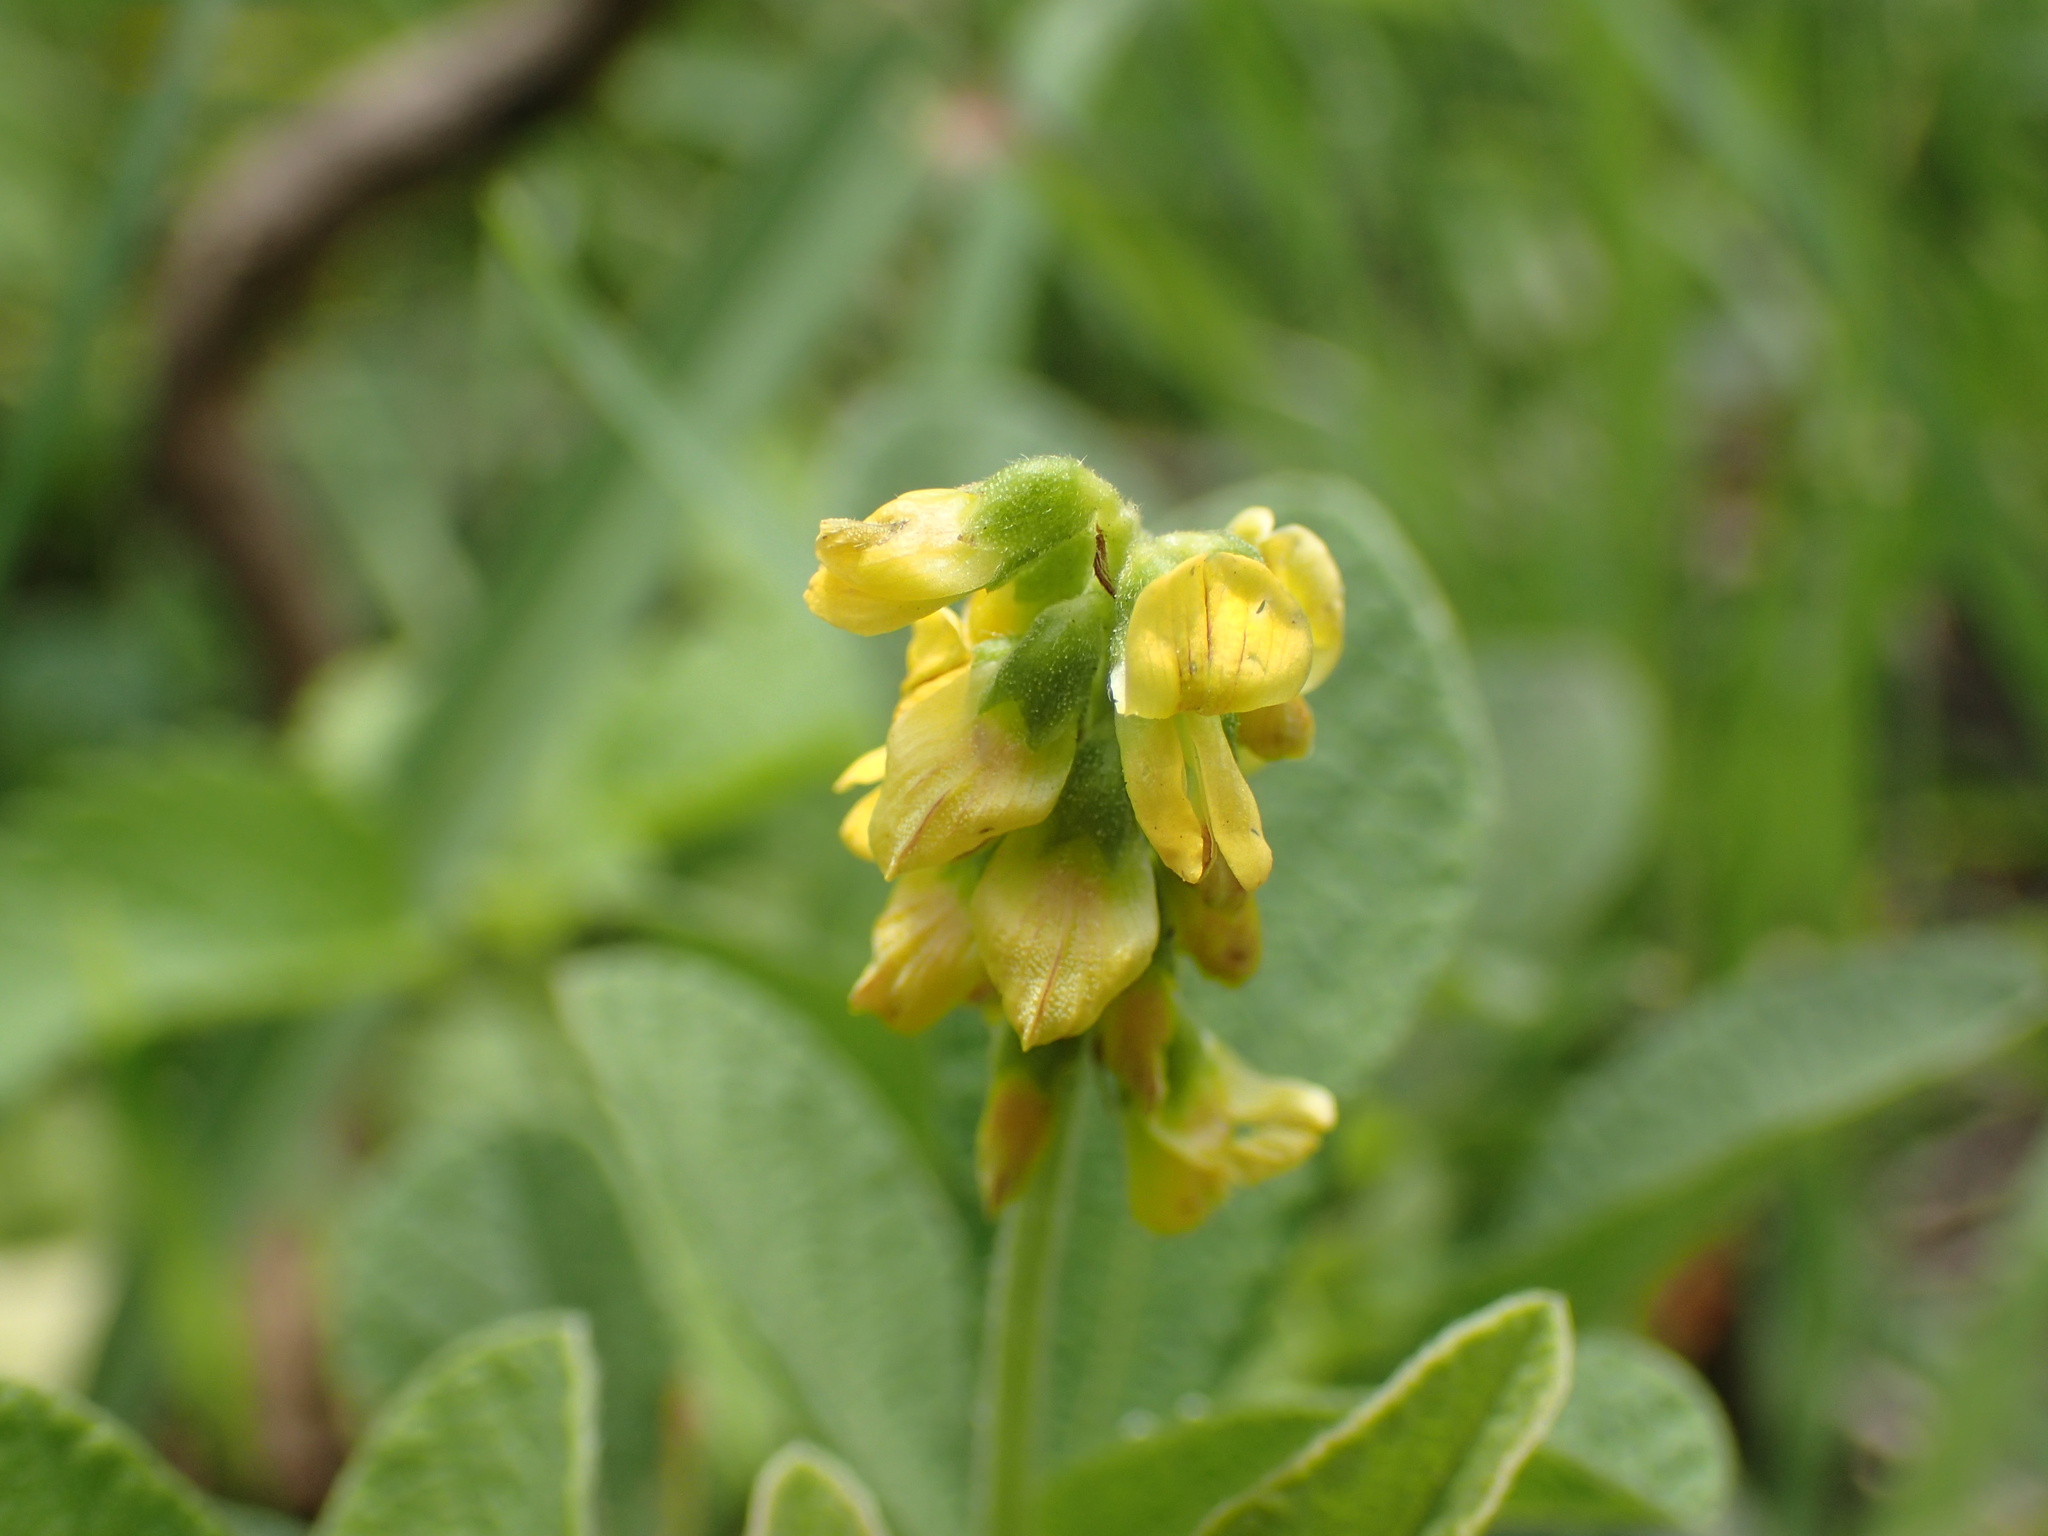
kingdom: Plantae
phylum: Tracheophyta
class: Magnoliopsida
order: Fabales
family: Fabaceae
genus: Eriosema
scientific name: Eriosema parviflorum
